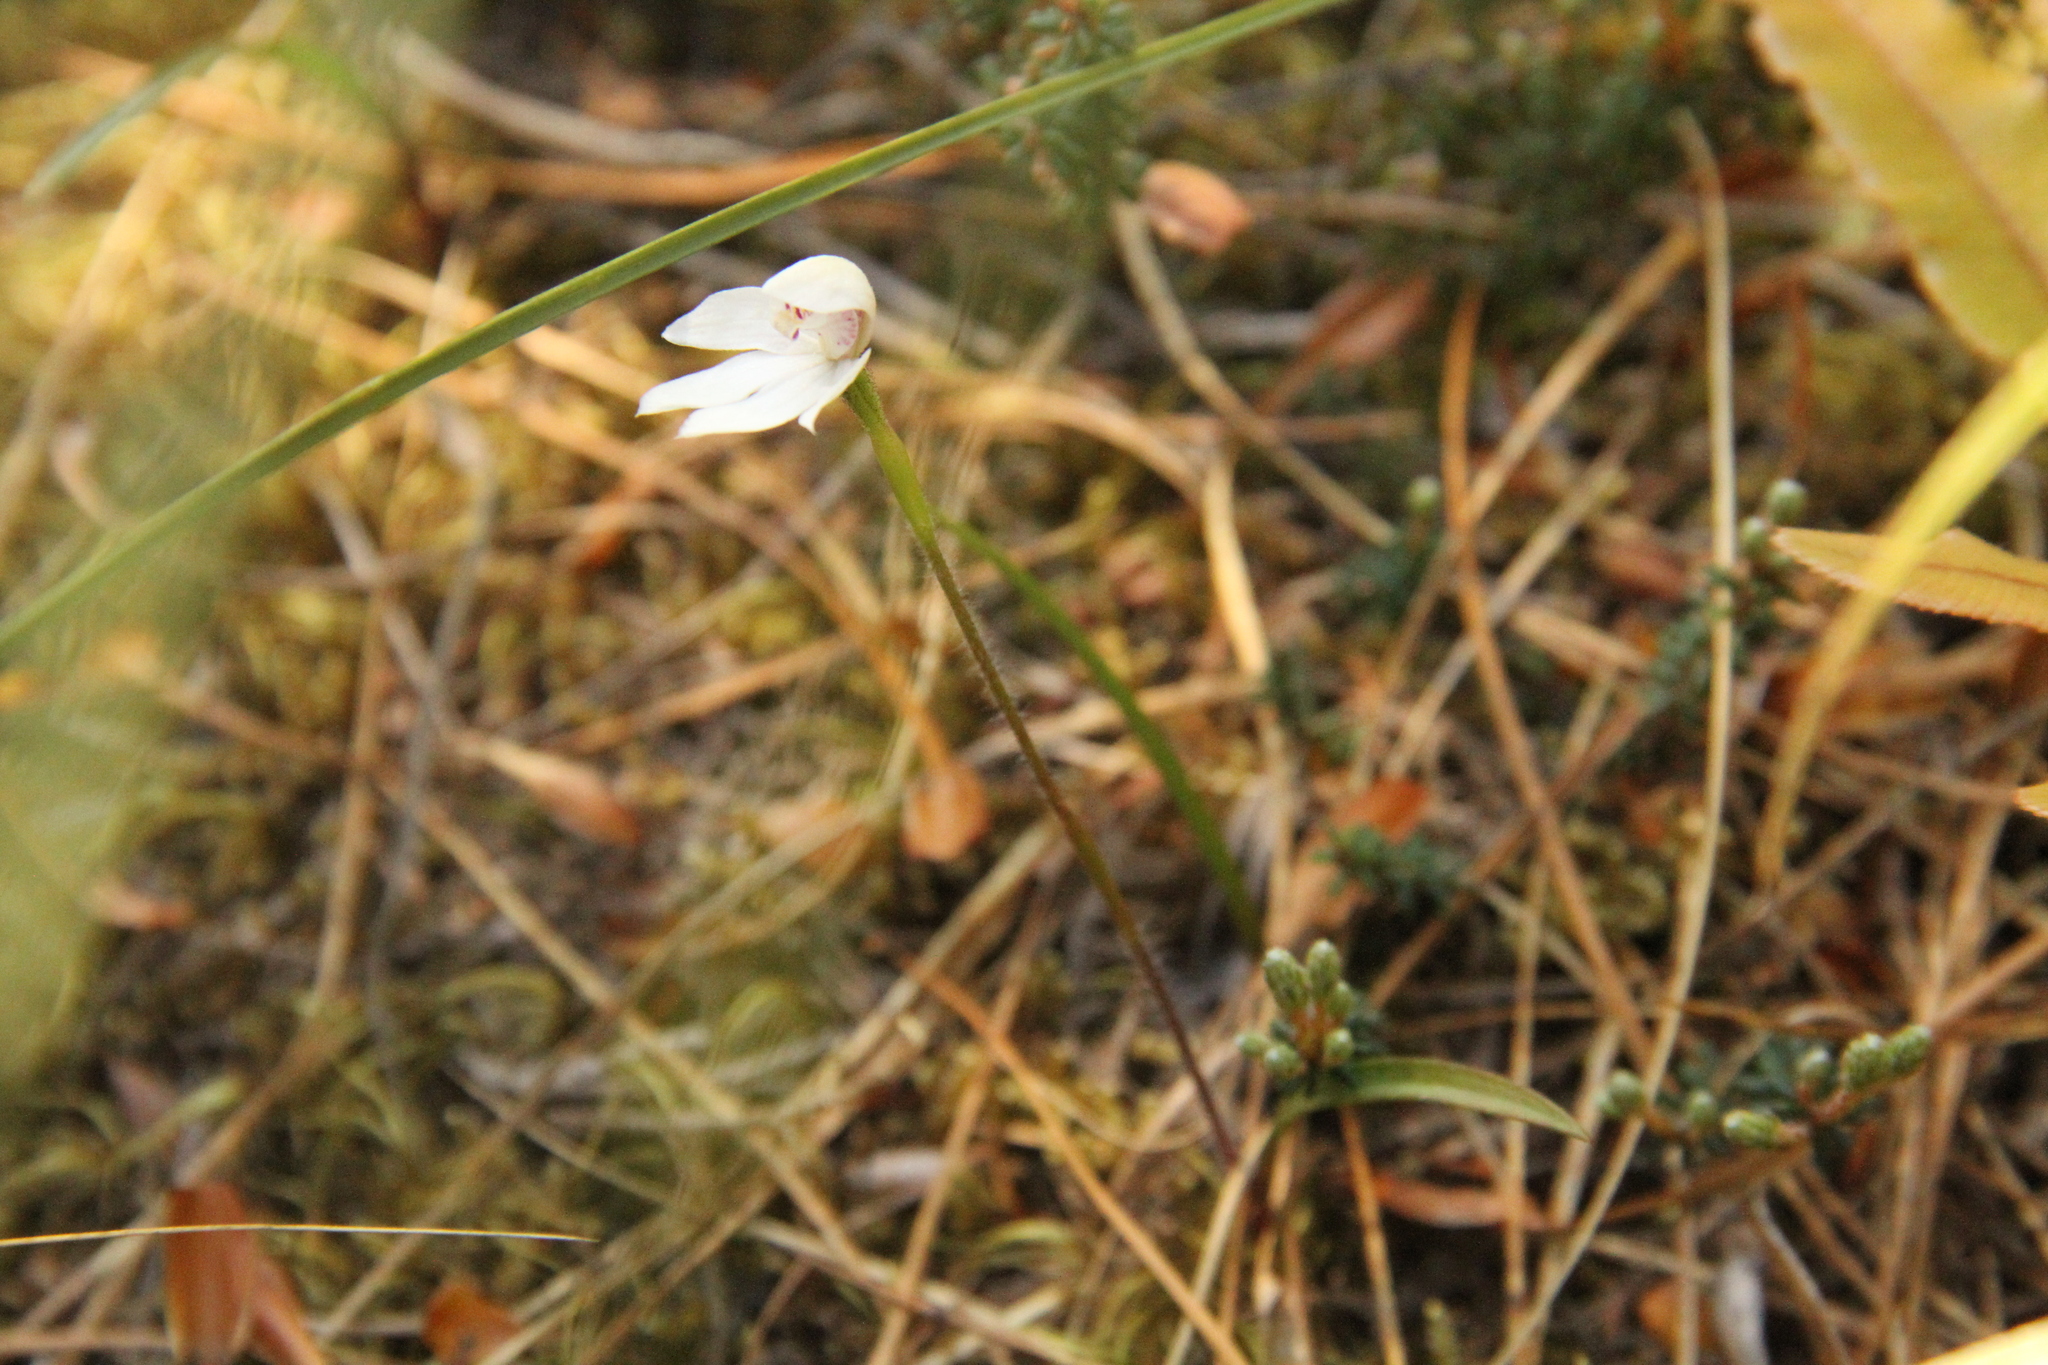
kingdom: Plantae
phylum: Tracheophyta
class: Liliopsida
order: Asparagales
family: Orchidaceae
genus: Caladenia
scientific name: Caladenia lyallii
